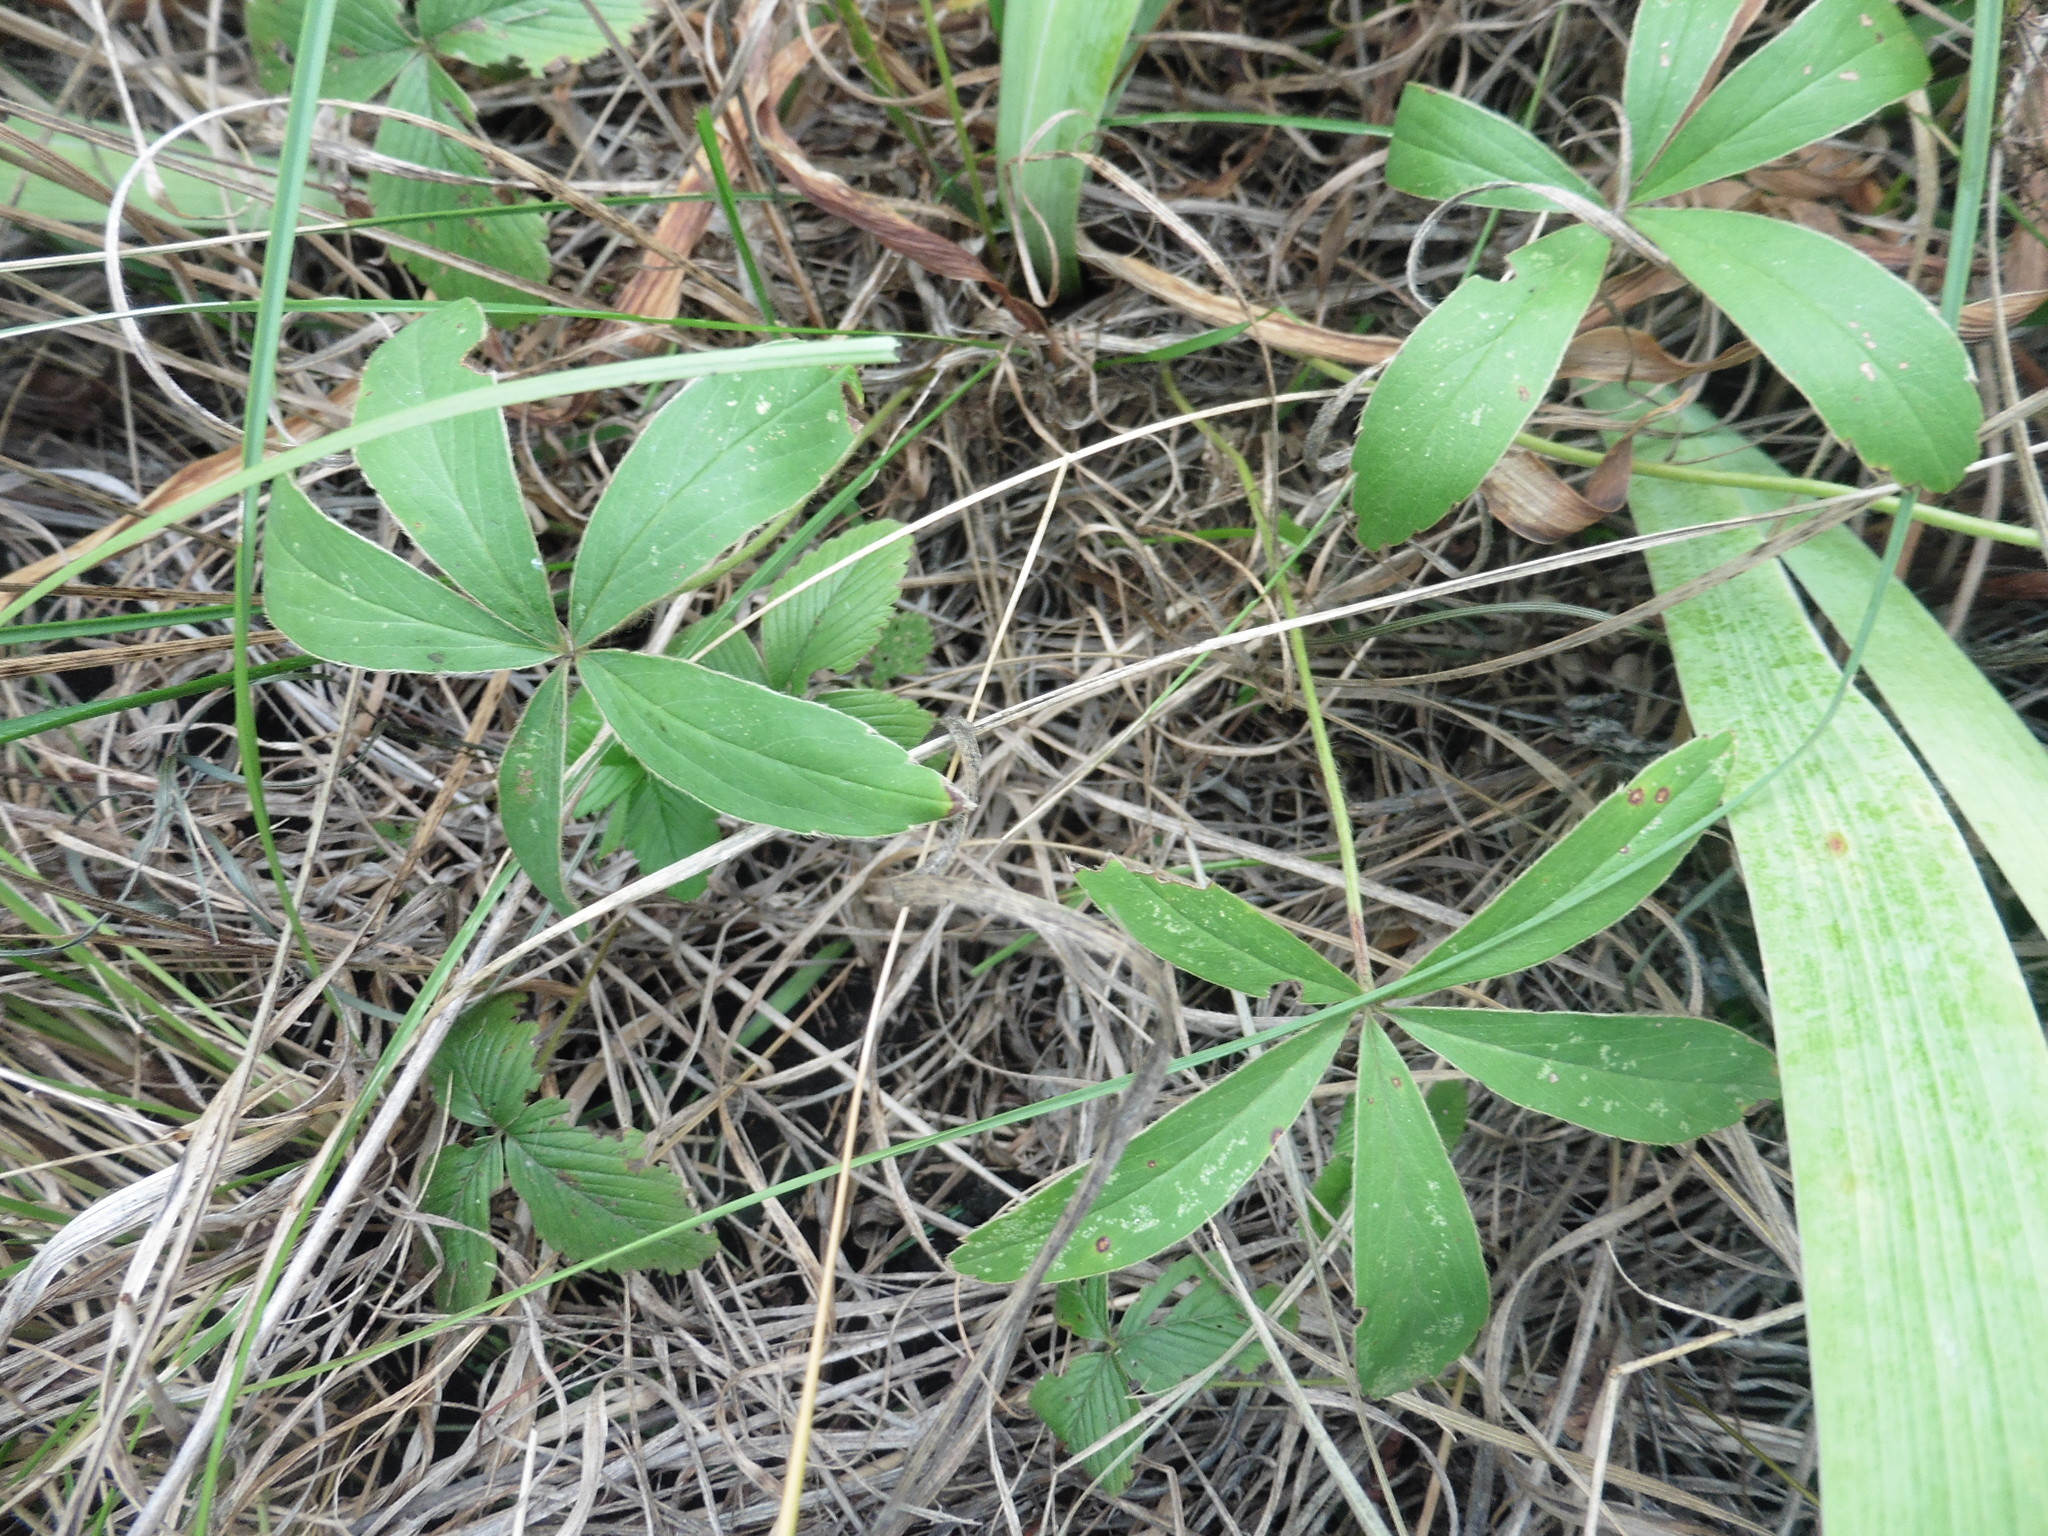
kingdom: Plantae
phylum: Tracheophyta
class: Magnoliopsida
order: Rosales
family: Rosaceae
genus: Potentilla
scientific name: Potentilla alba
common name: White cinquefoil
